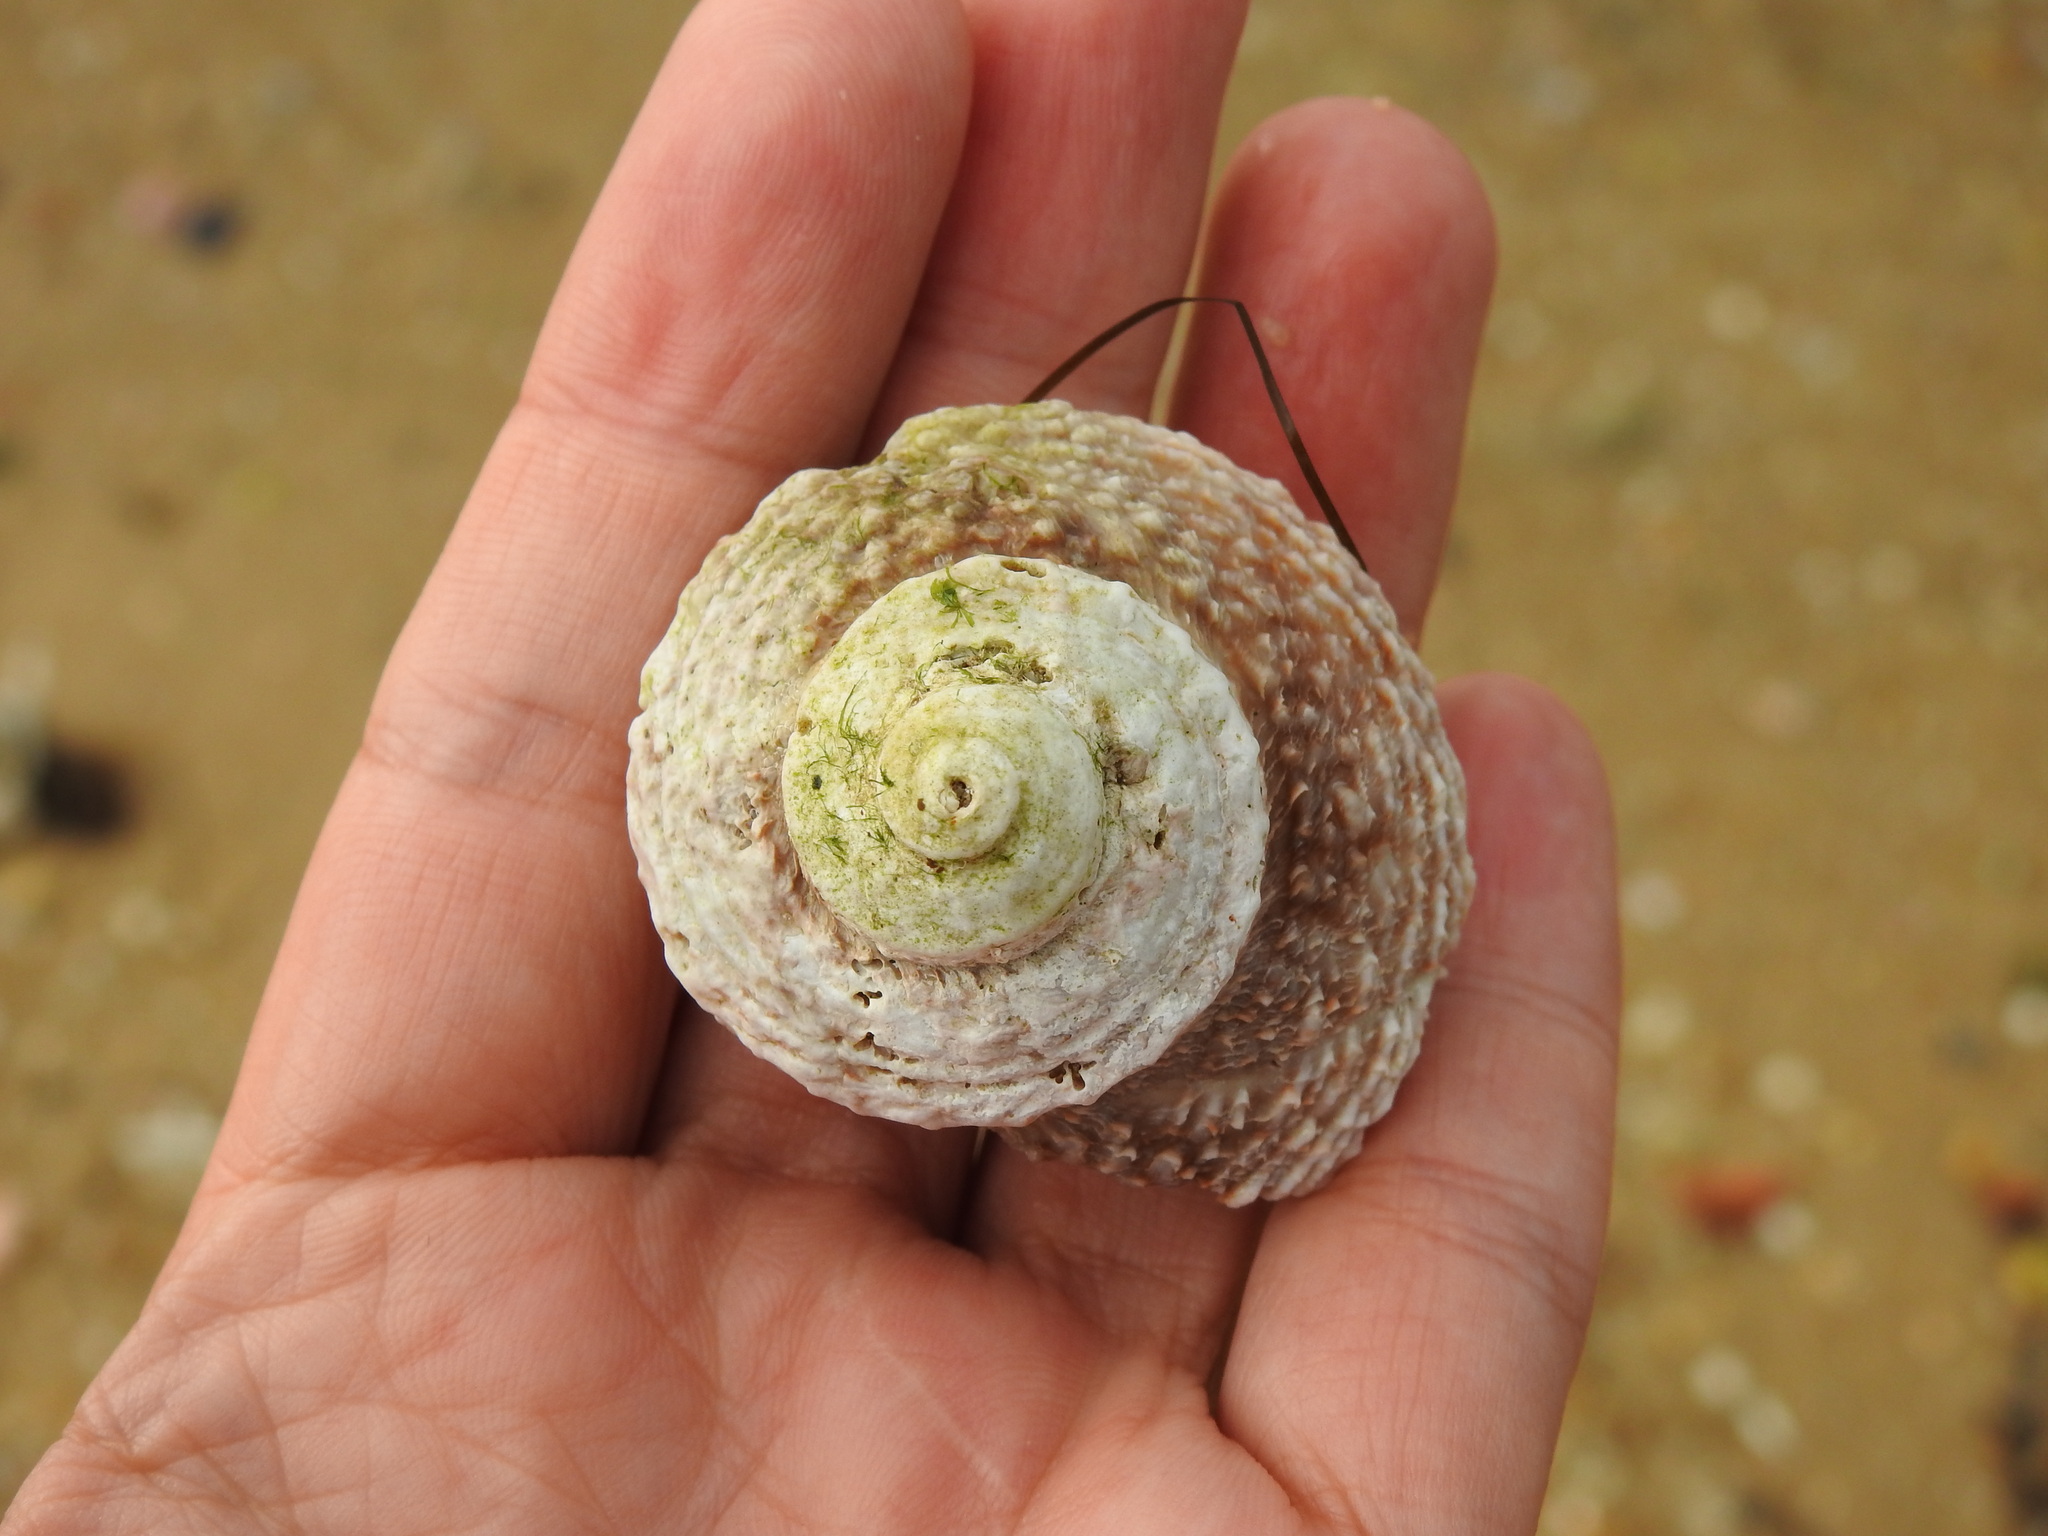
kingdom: Animalia
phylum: Mollusca
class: Gastropoda
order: Trochida
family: Turbinidae
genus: Bolma
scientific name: Bolma rugosa
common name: Rough star shell
